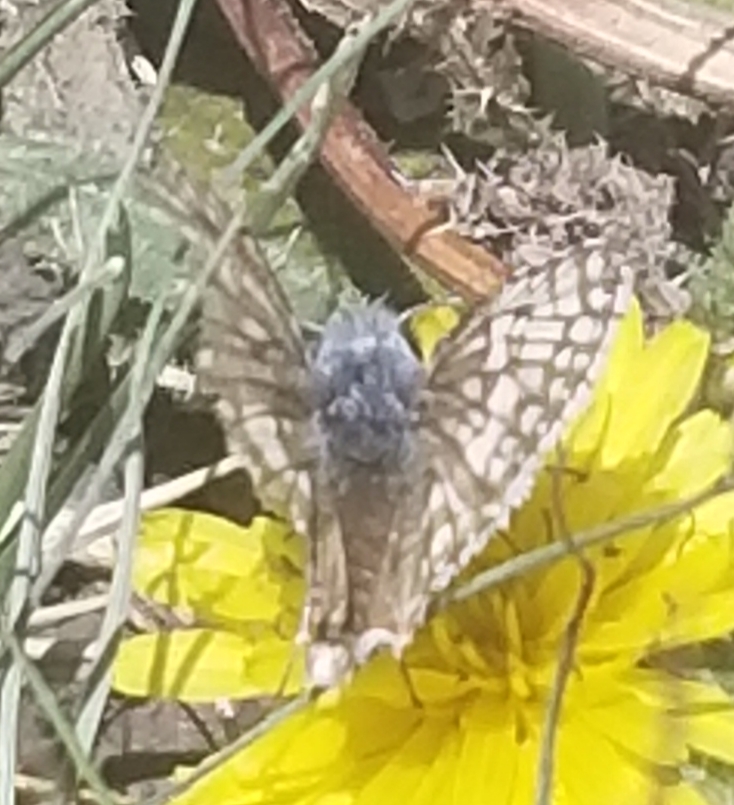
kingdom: Animalia
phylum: Arthropoda
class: Insecta
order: Lepidoptera
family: Hesperiidae
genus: Burnsius
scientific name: Burnsius communis
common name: Common checkered-skipper
